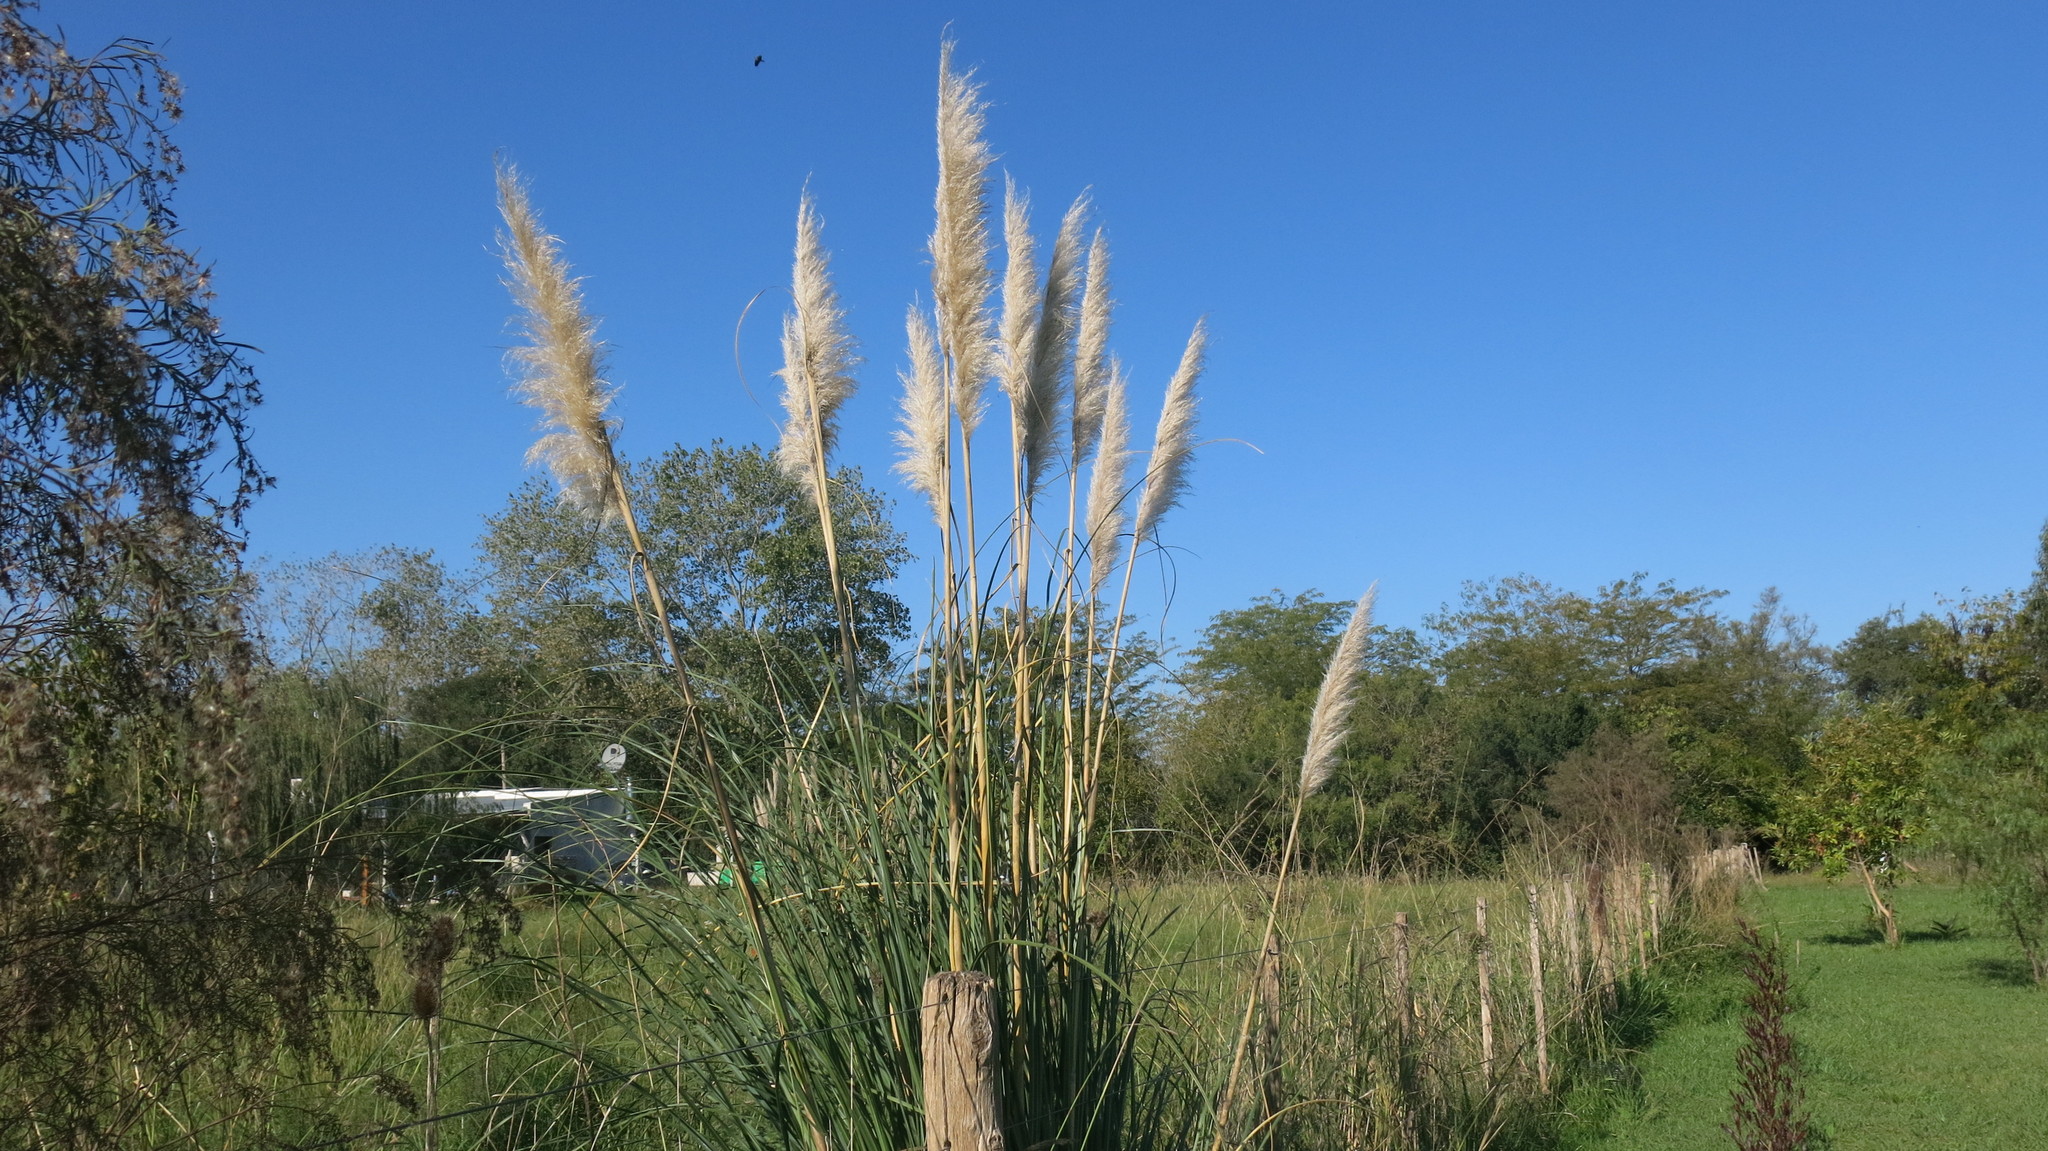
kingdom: Plantae
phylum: Tracheophyta
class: Liliopsida
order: Poales
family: Poaceae
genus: Cortaderia
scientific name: Cortaderia selloana
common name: Uruguayan pampas grass
